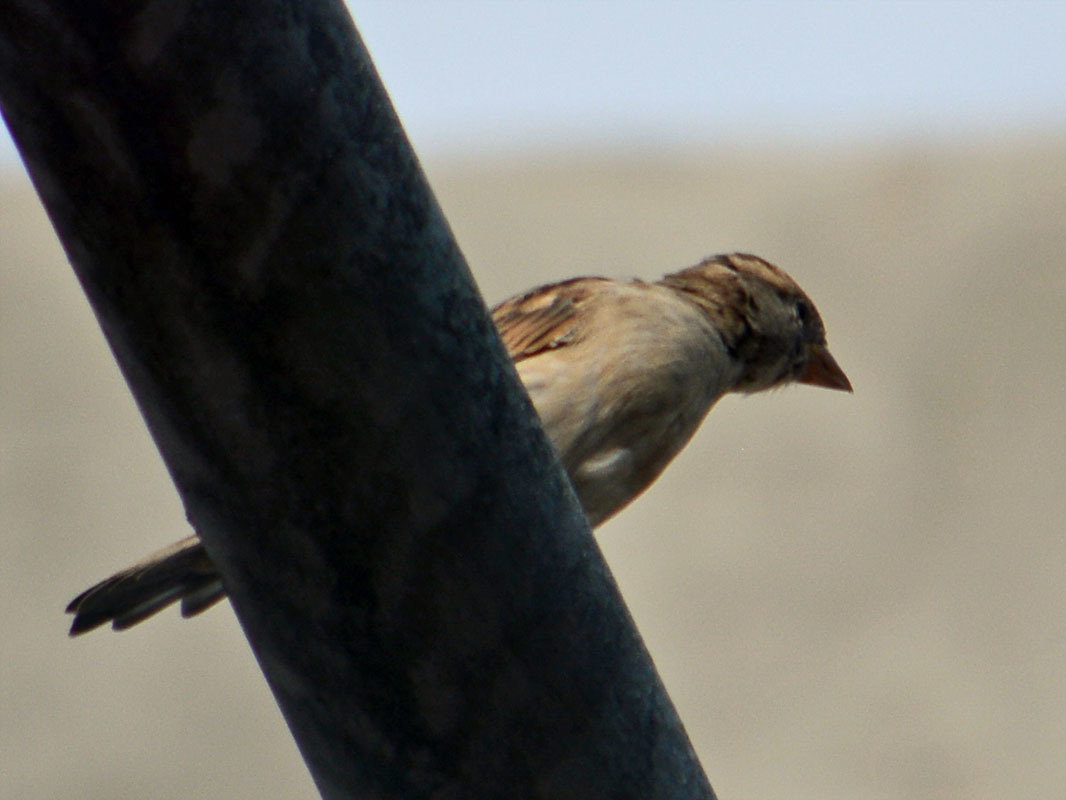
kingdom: Animalia
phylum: Chordata
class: Aves
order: Passeriformes
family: Passeridae
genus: Passer
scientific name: Passer domesticus
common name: House sparrow
